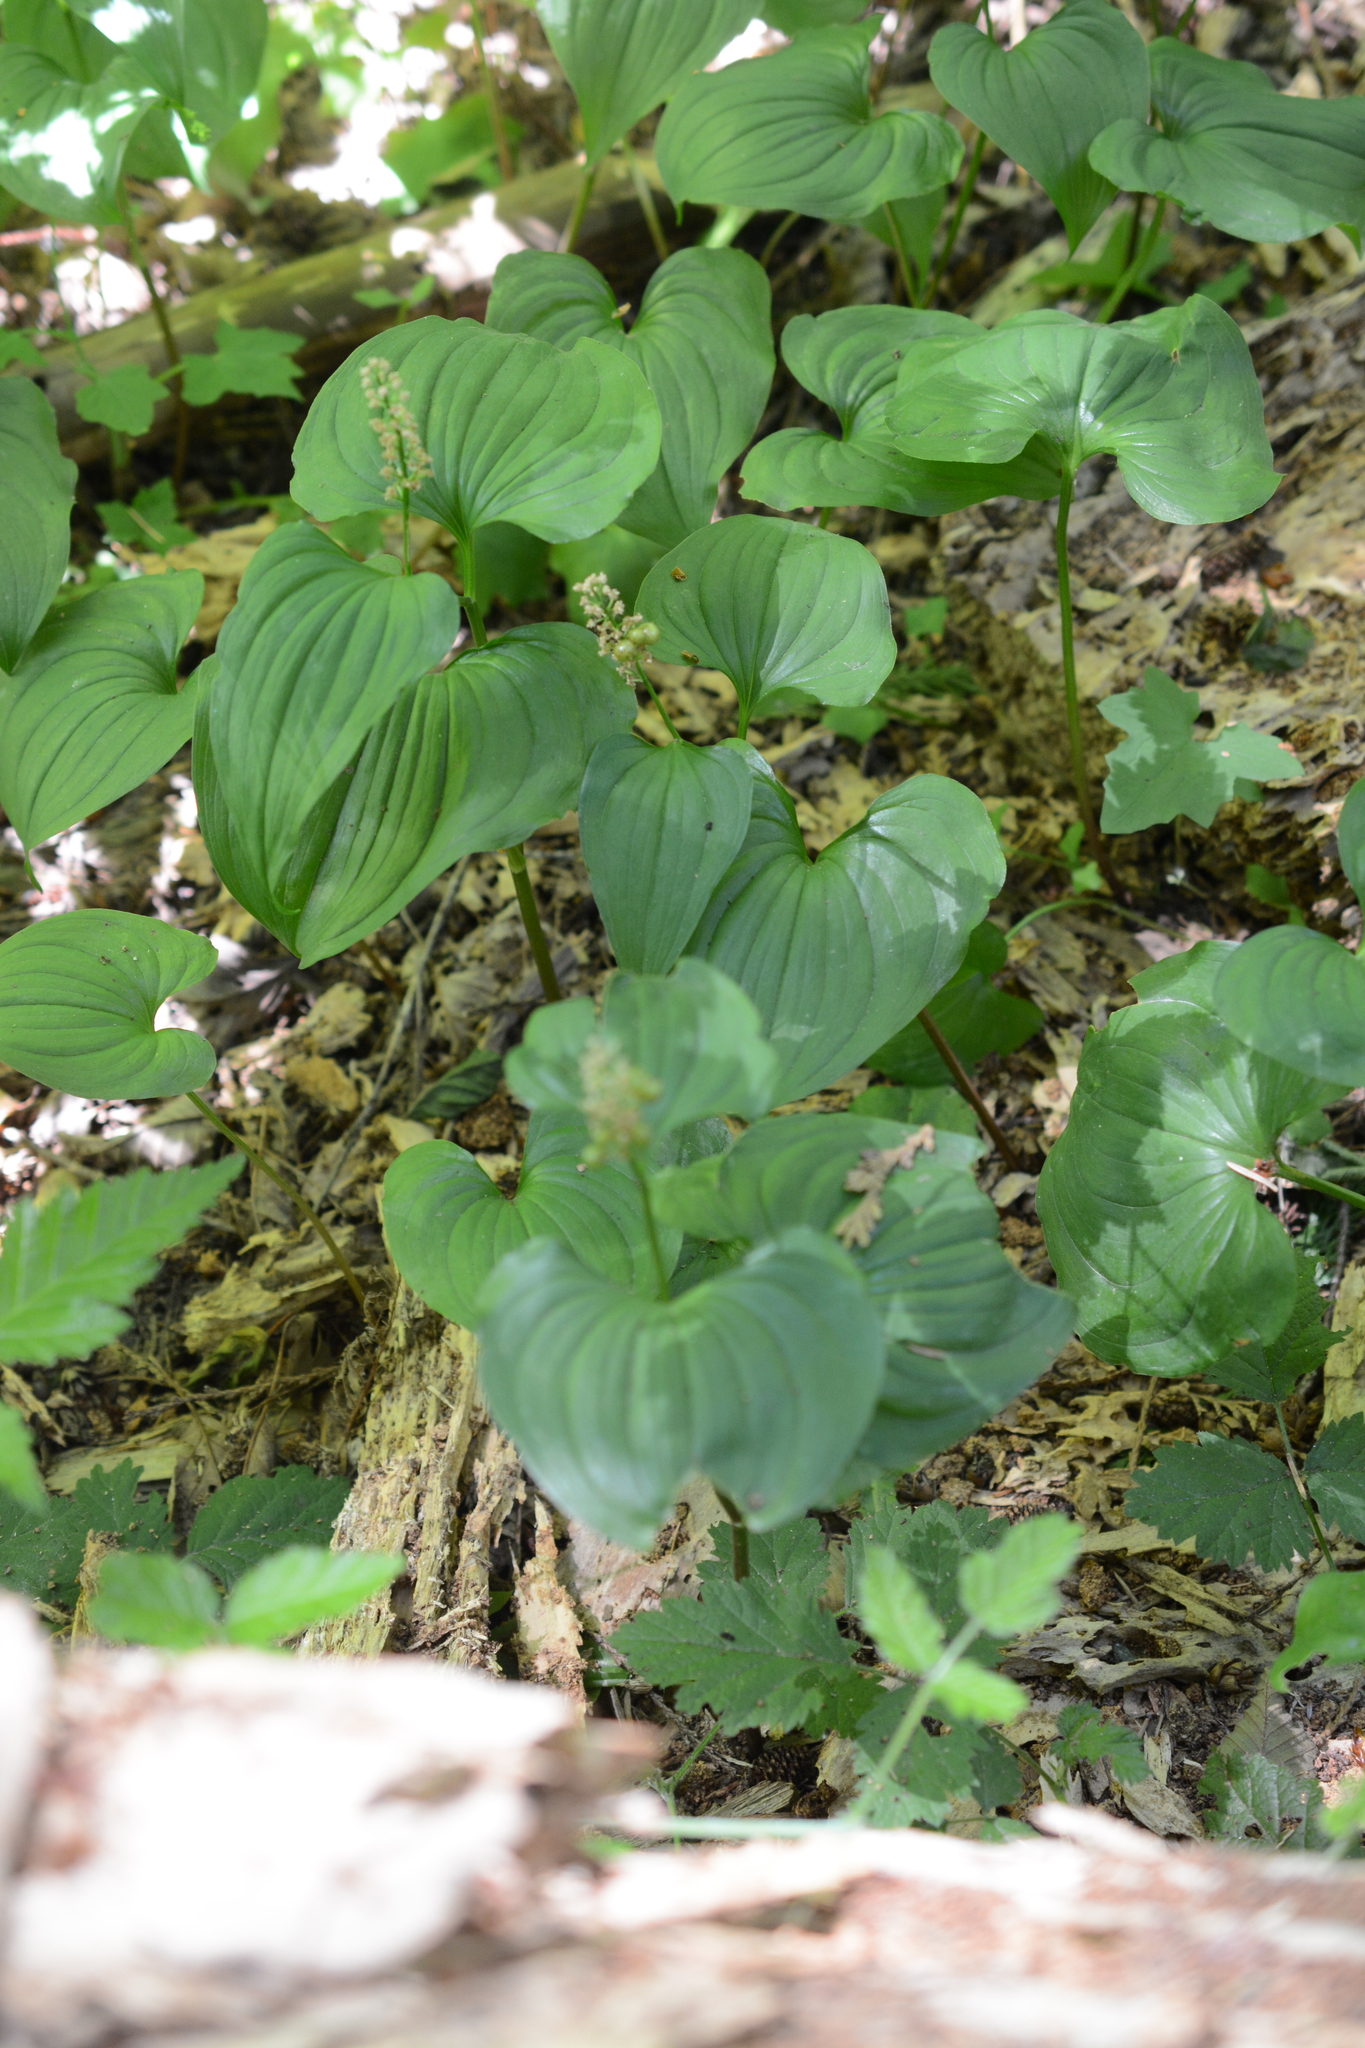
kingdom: Plantae
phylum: Tracheophyta
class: Liliopsida
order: Asparagales
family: Asparagaceae
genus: Maianthemum
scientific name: Maianthemum dilatatum
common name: False lily-of-the-valley
